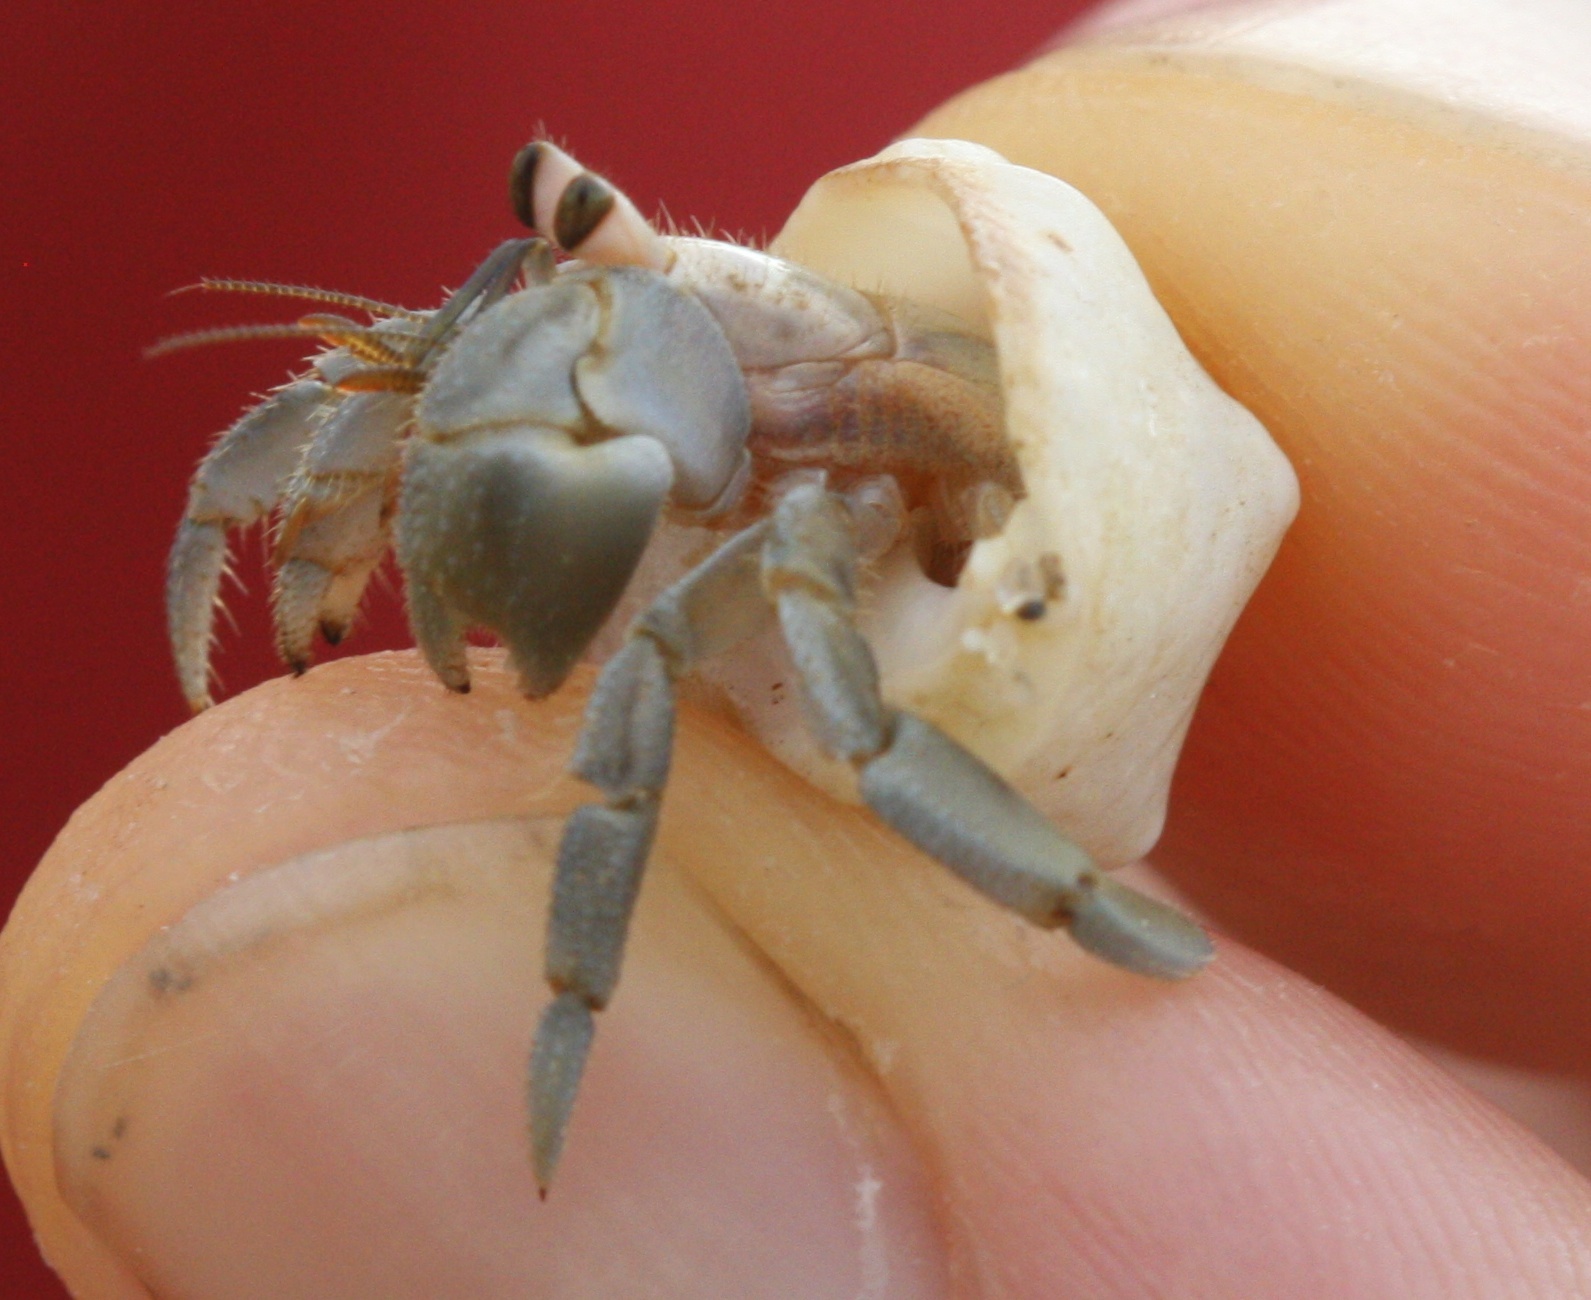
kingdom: Animalia
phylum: Arthropoda
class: Malacostraca
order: Decapoda
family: Coenobitidae
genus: Coenobita
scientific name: Coenobita compressus
